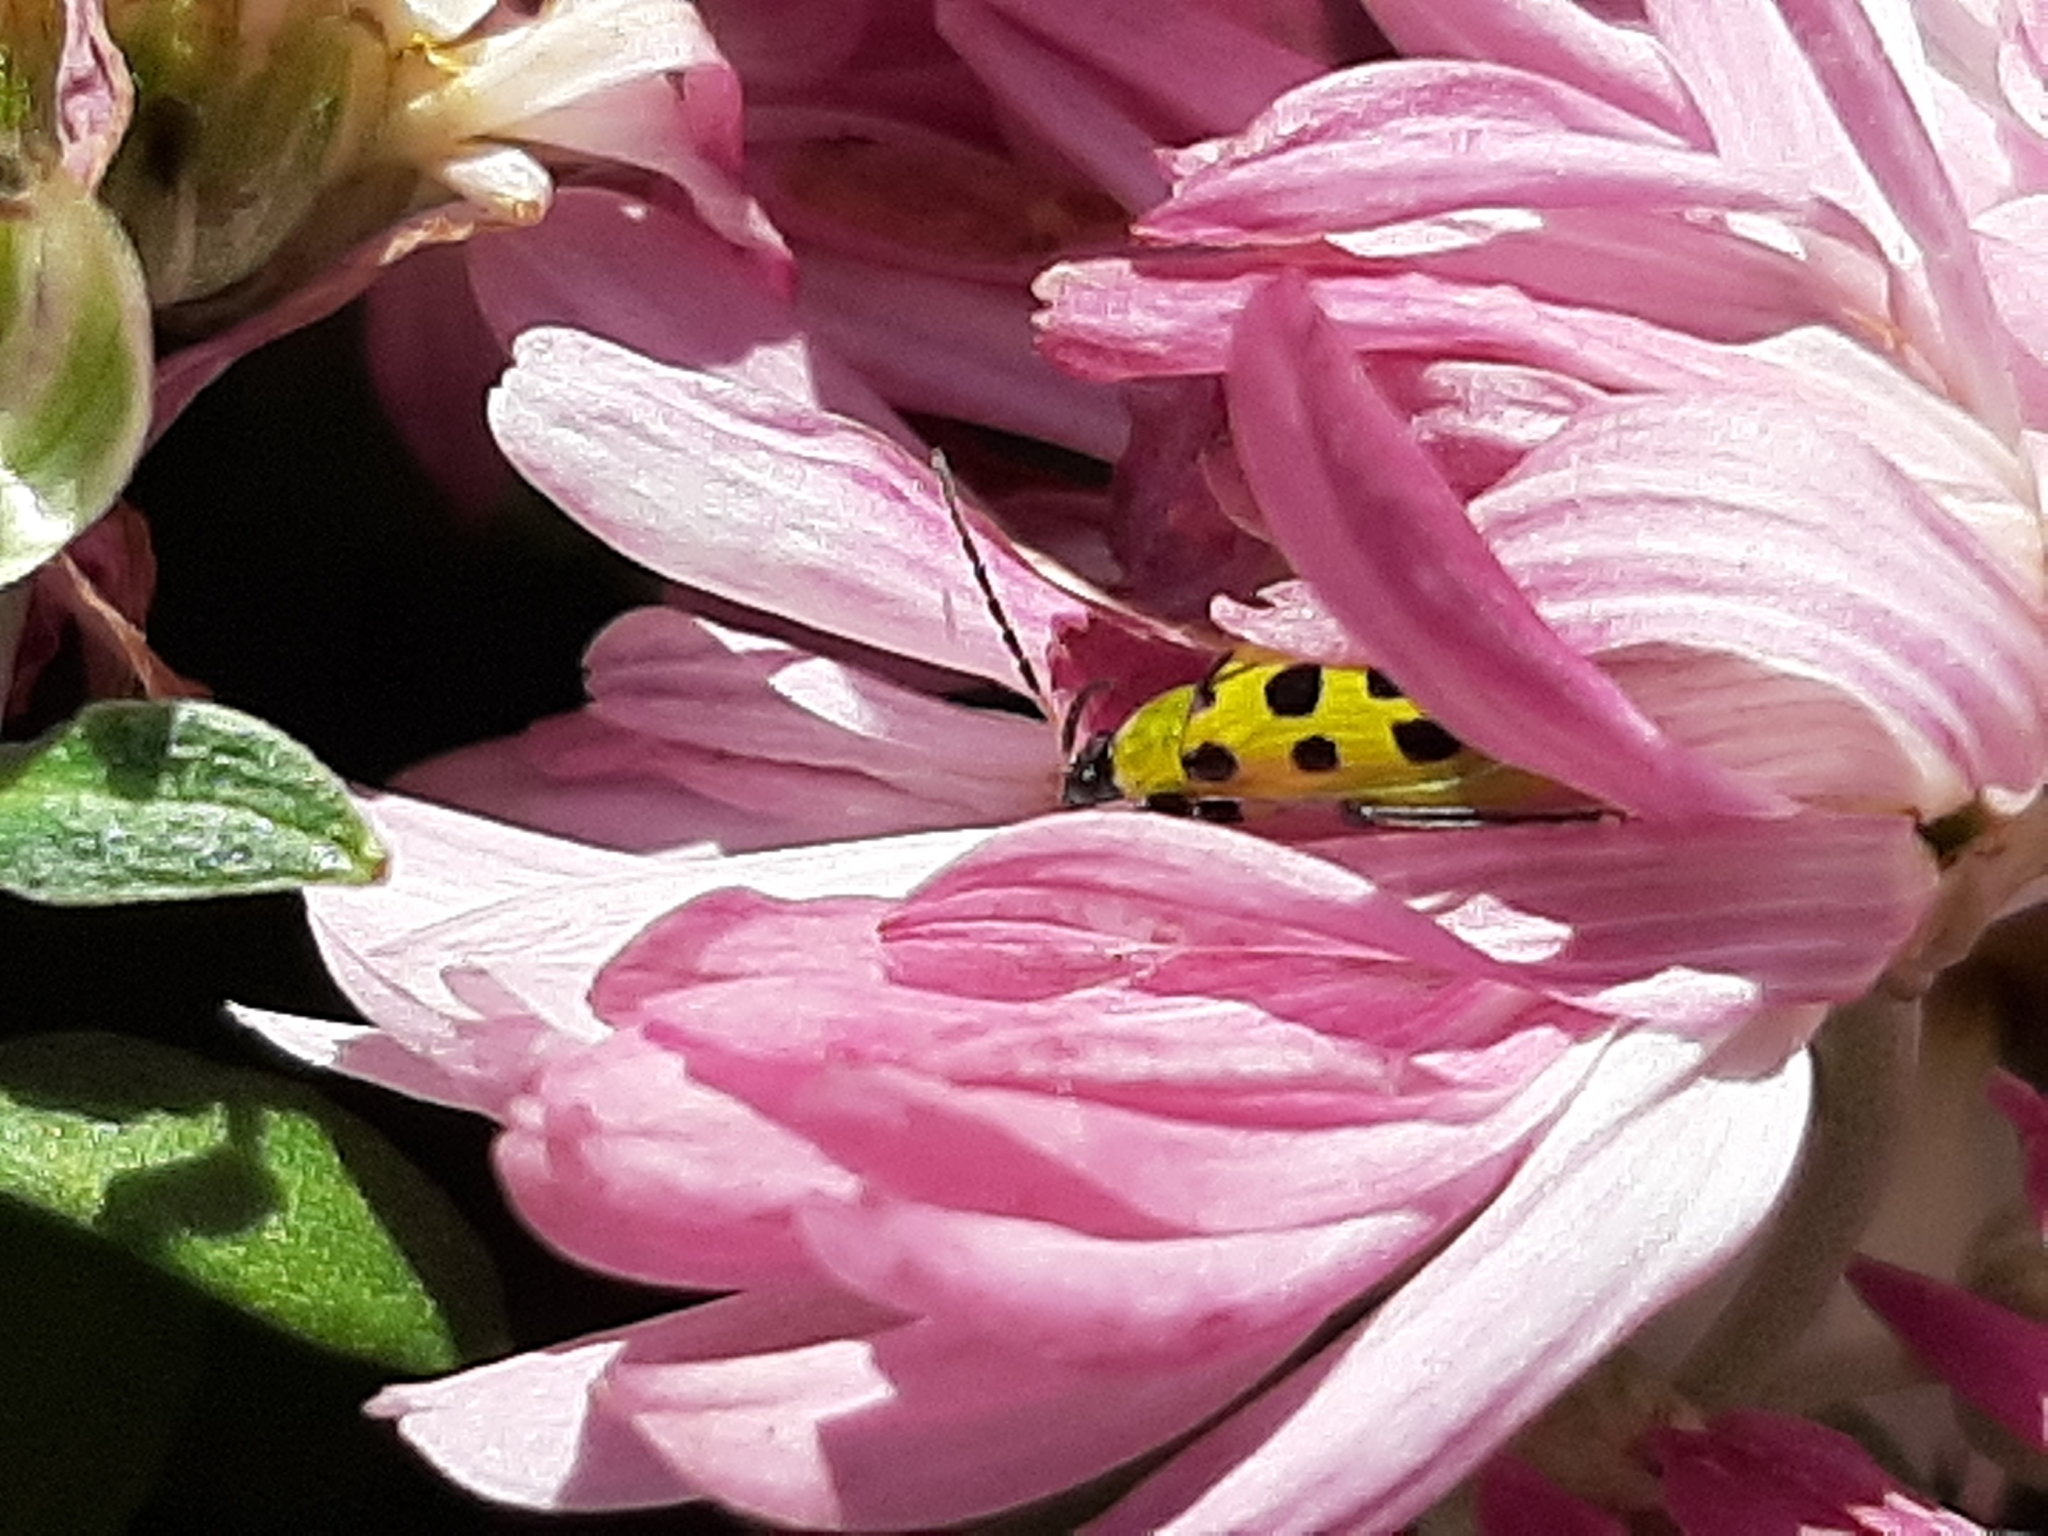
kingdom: Animalia
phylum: Arthropoda
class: Insecta
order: Coleoptera
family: Chrysomelidae
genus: Diabrotica
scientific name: Diabrotica undecimpunctata
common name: Spotted cucumber beetle
